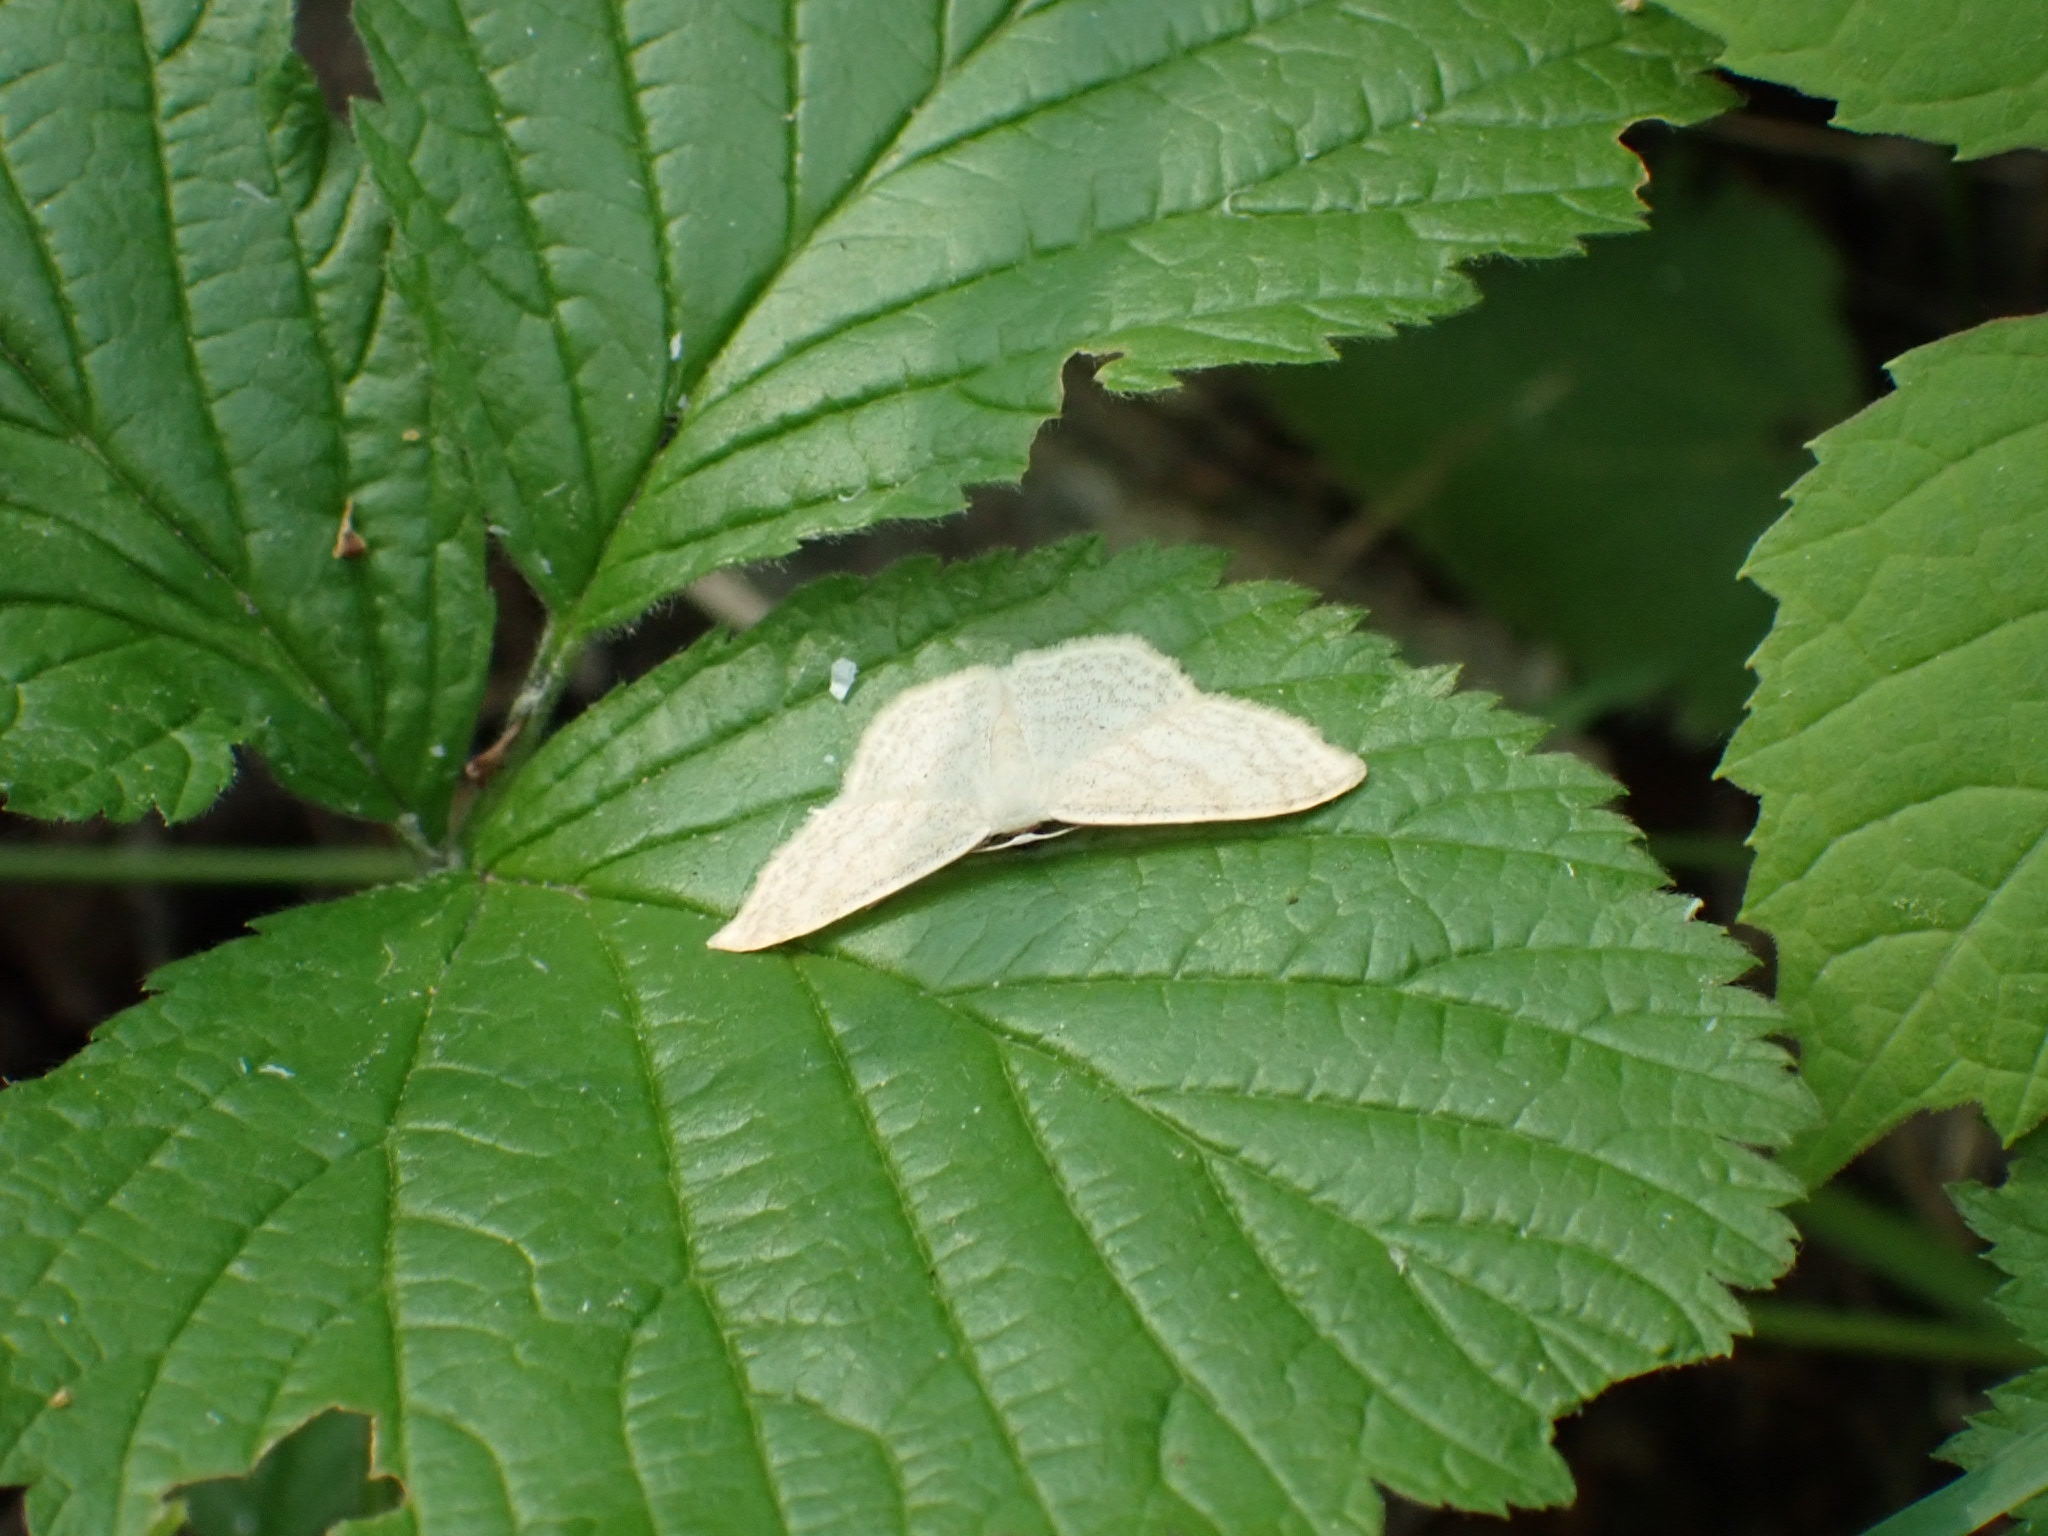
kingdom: Animalia
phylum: Arthropoda
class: Insecta
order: Lepidoptera
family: Geometridae
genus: Scopula
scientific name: Scopula floslactata
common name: Cream wave
